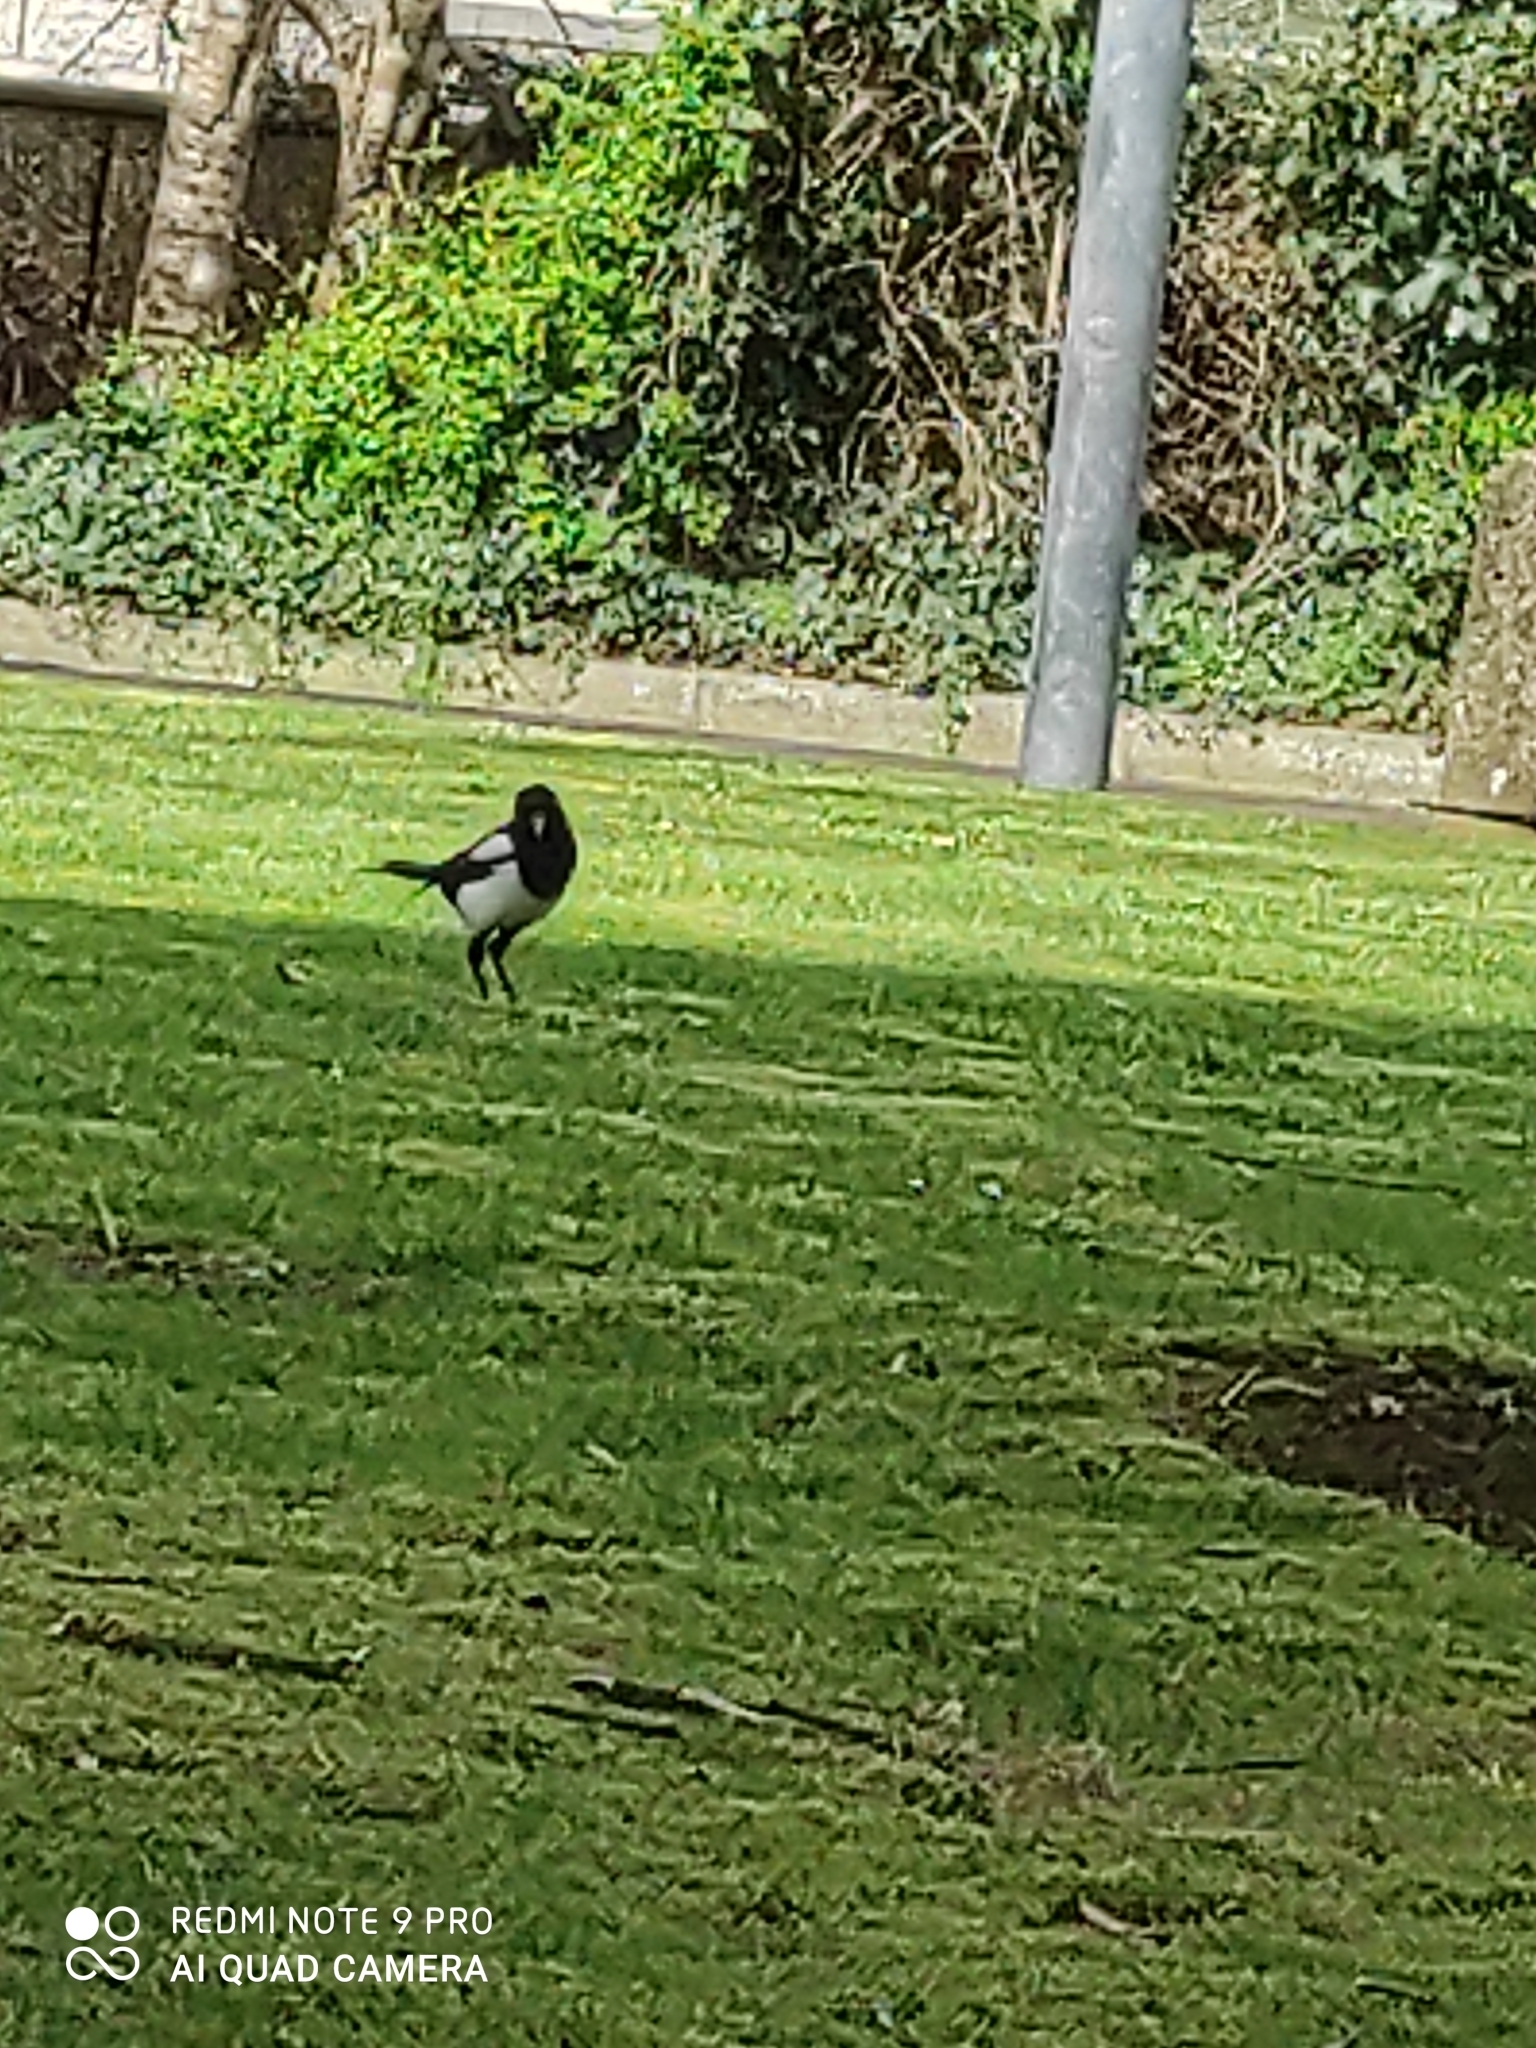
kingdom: Animalia
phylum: Chordata
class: Aves
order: Passeriformes
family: Corvidae
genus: Pica
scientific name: Pica pica
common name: Eurasian magpie
